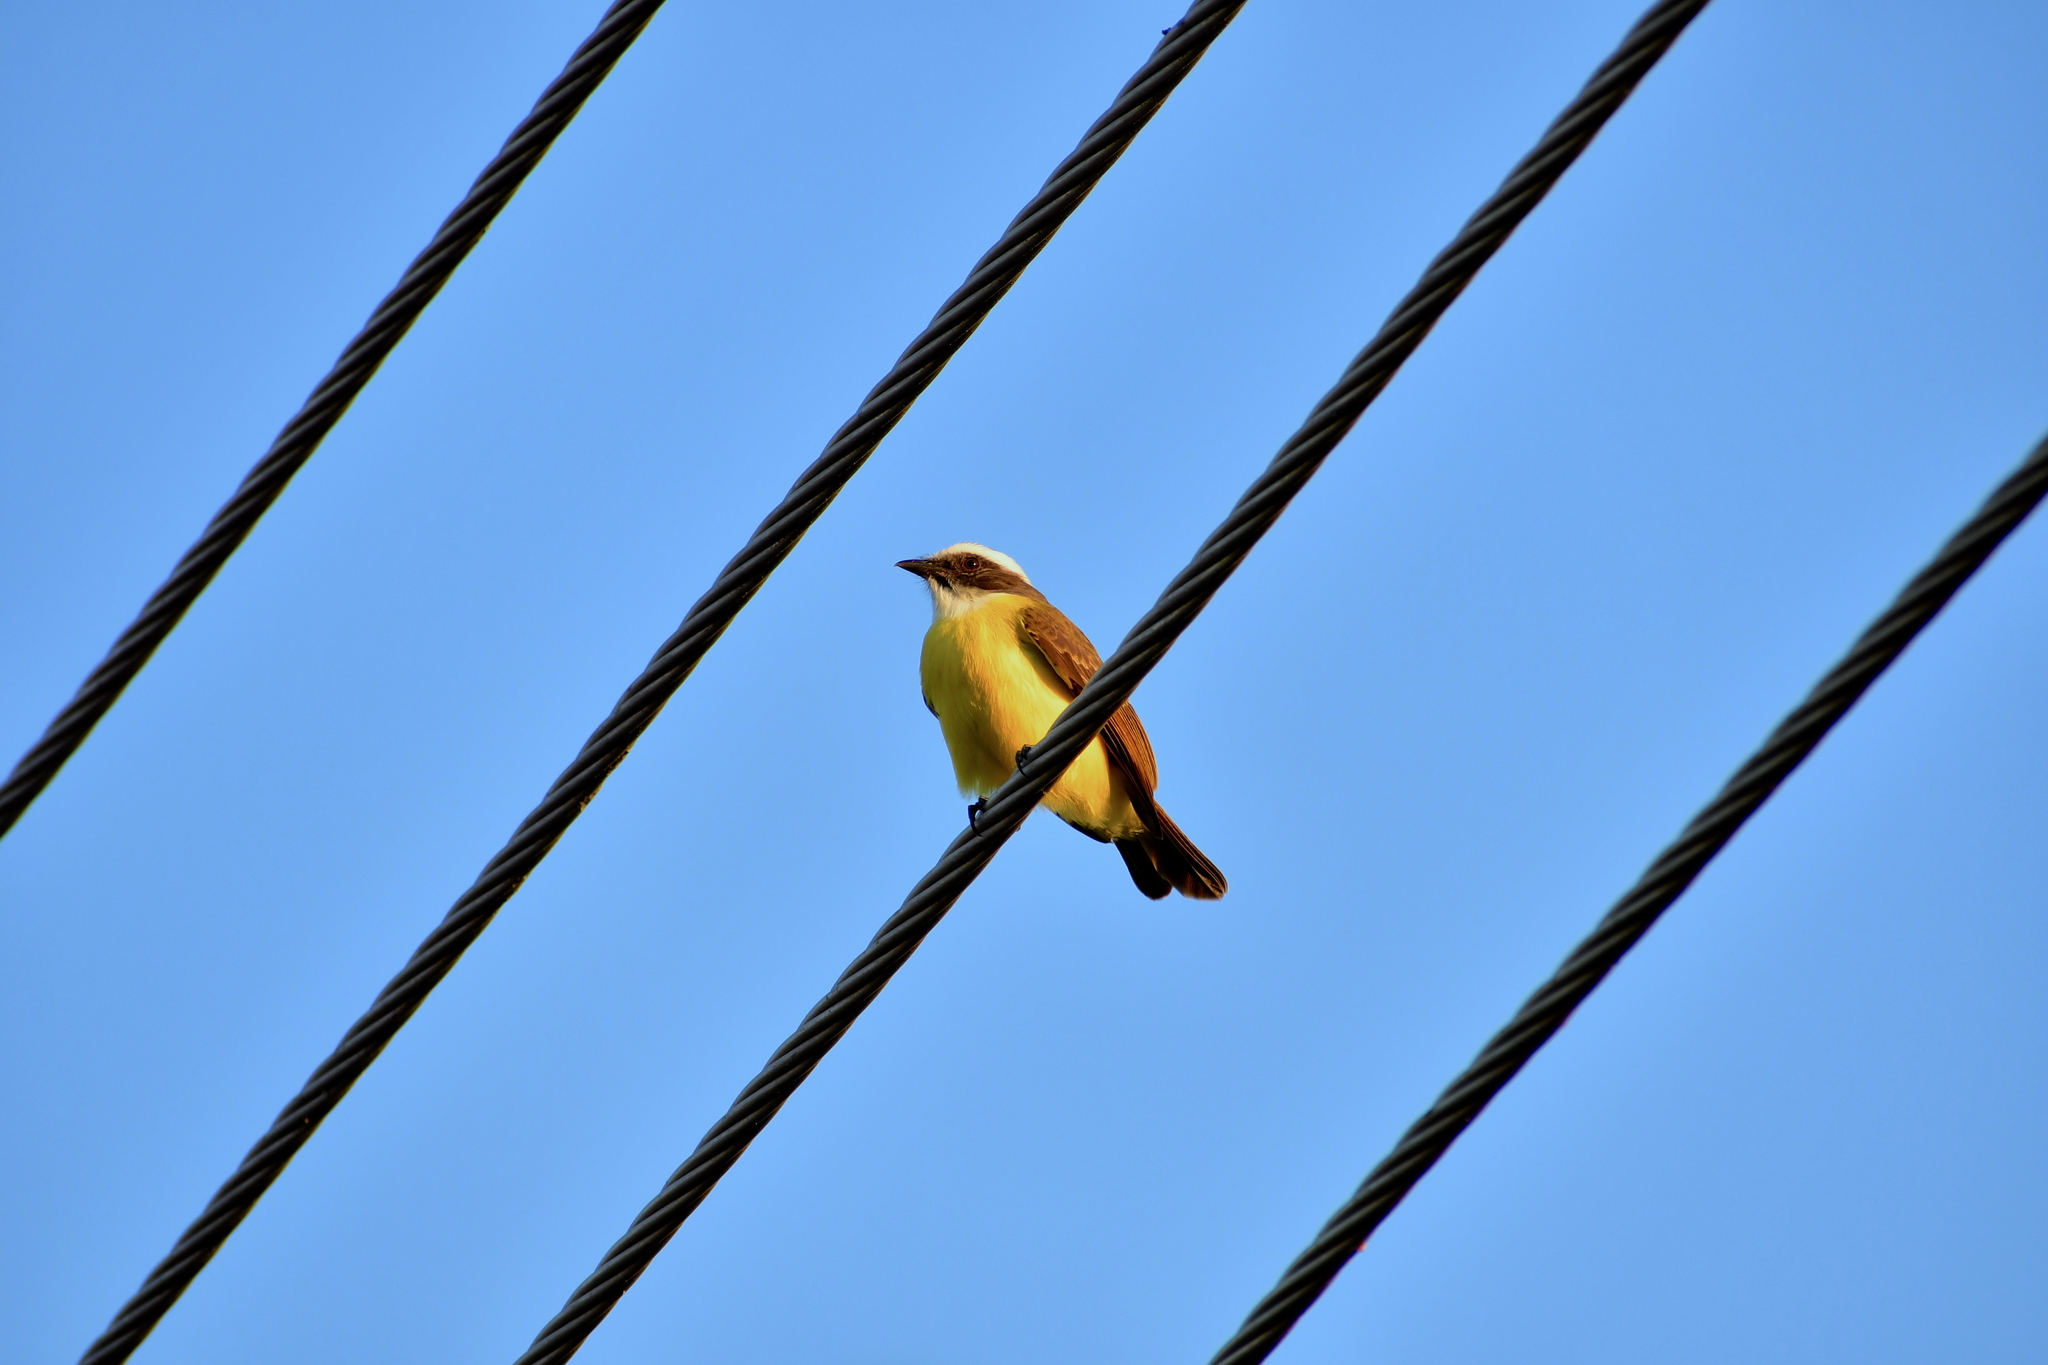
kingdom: Animalia
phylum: Chordata
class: Aves
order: Passeriformes
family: Tyrannidae
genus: Myiozetetes
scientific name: Myiozetetes similis
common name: Social flycatcher
